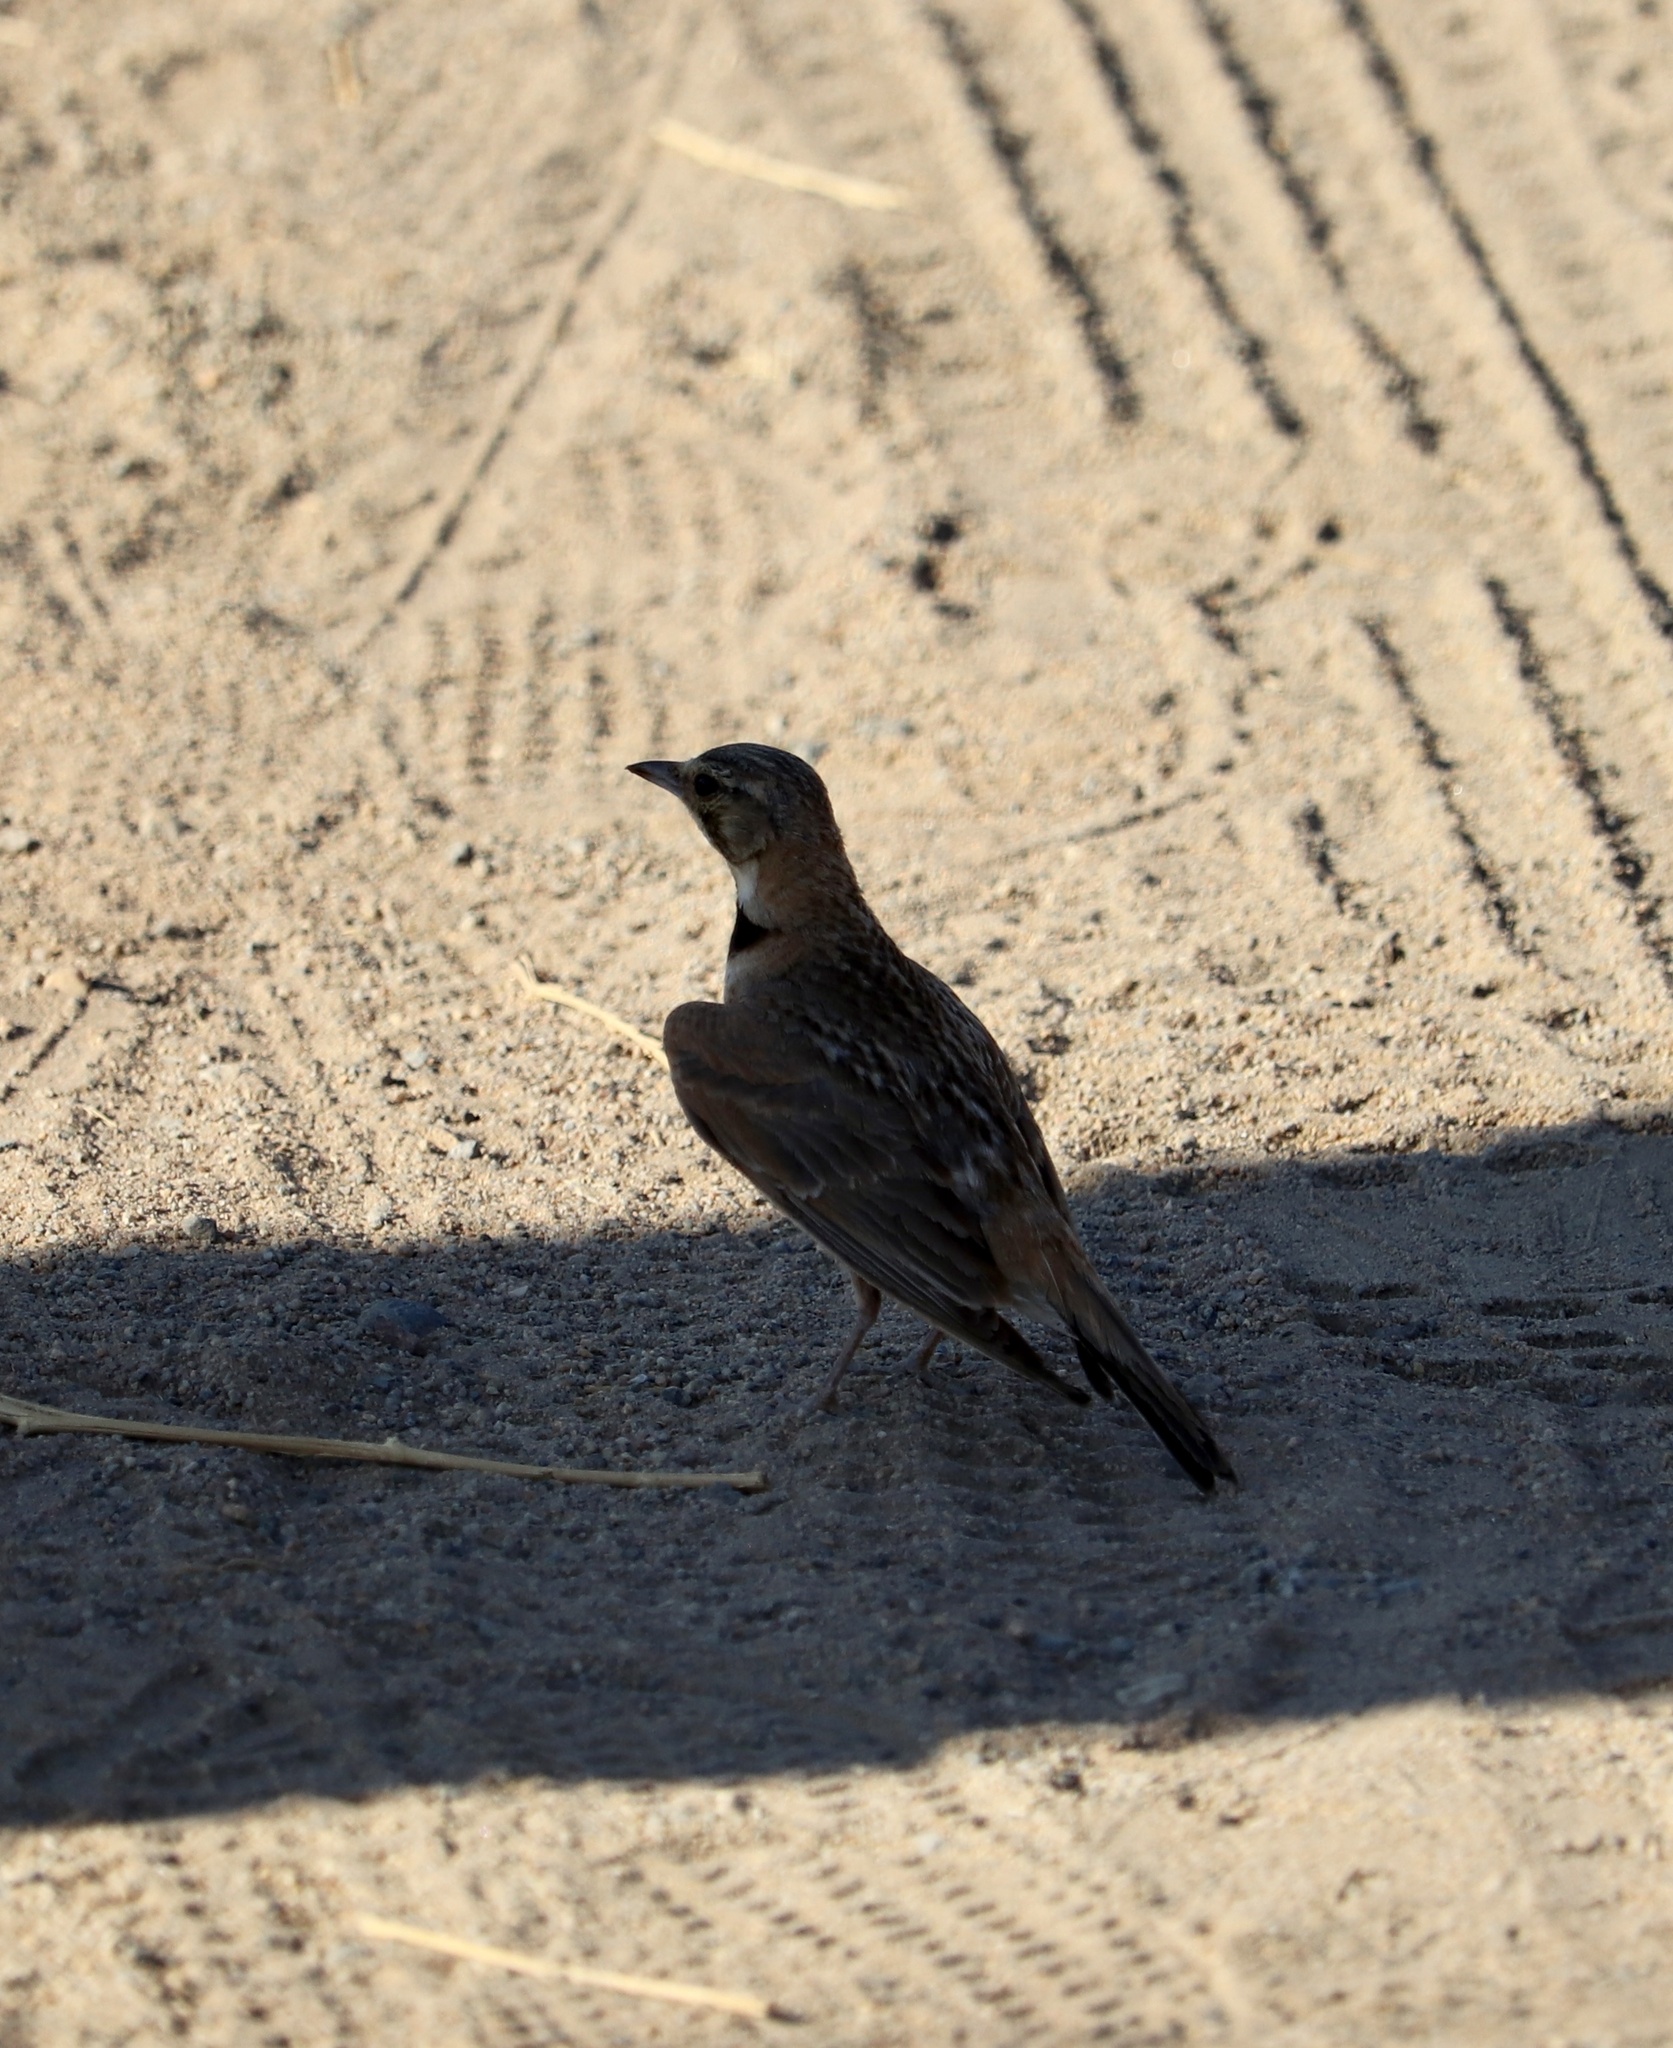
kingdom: Animalia
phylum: Chordata
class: Aves
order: Passeriformes
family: Alaudidae
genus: Eremophila
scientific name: Eremophila alpestris
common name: Horned lark
